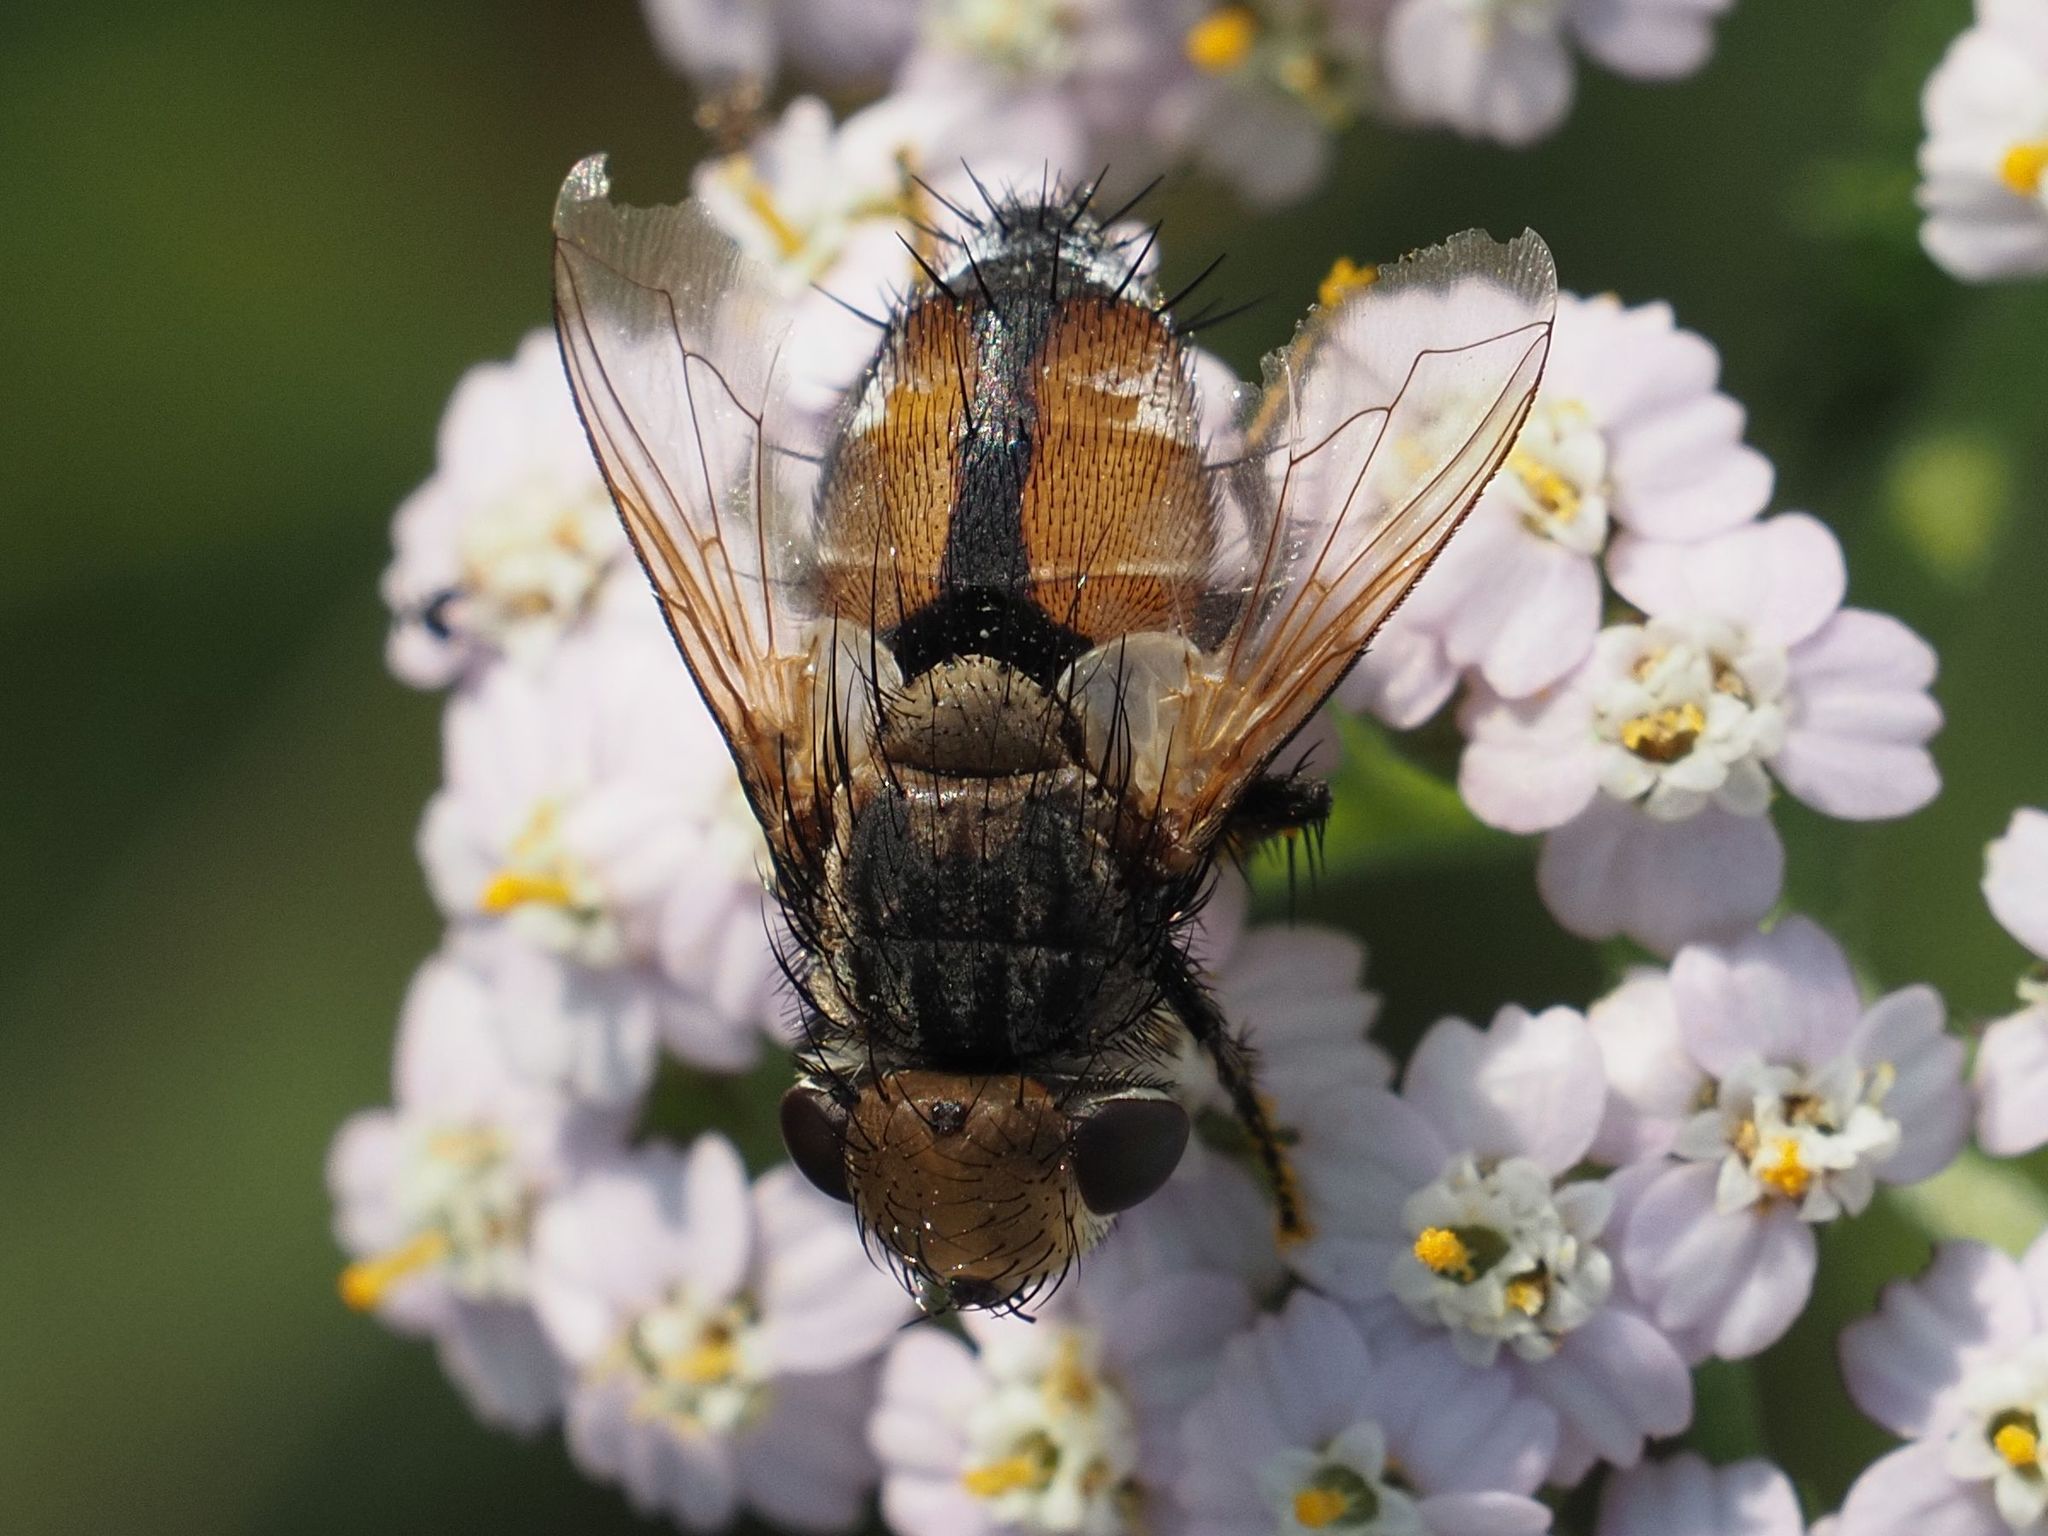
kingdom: Animalia
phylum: Arthropoda
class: Insecta
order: Diptera
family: Tachinidae
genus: Gonia
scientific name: Gonia capitata
